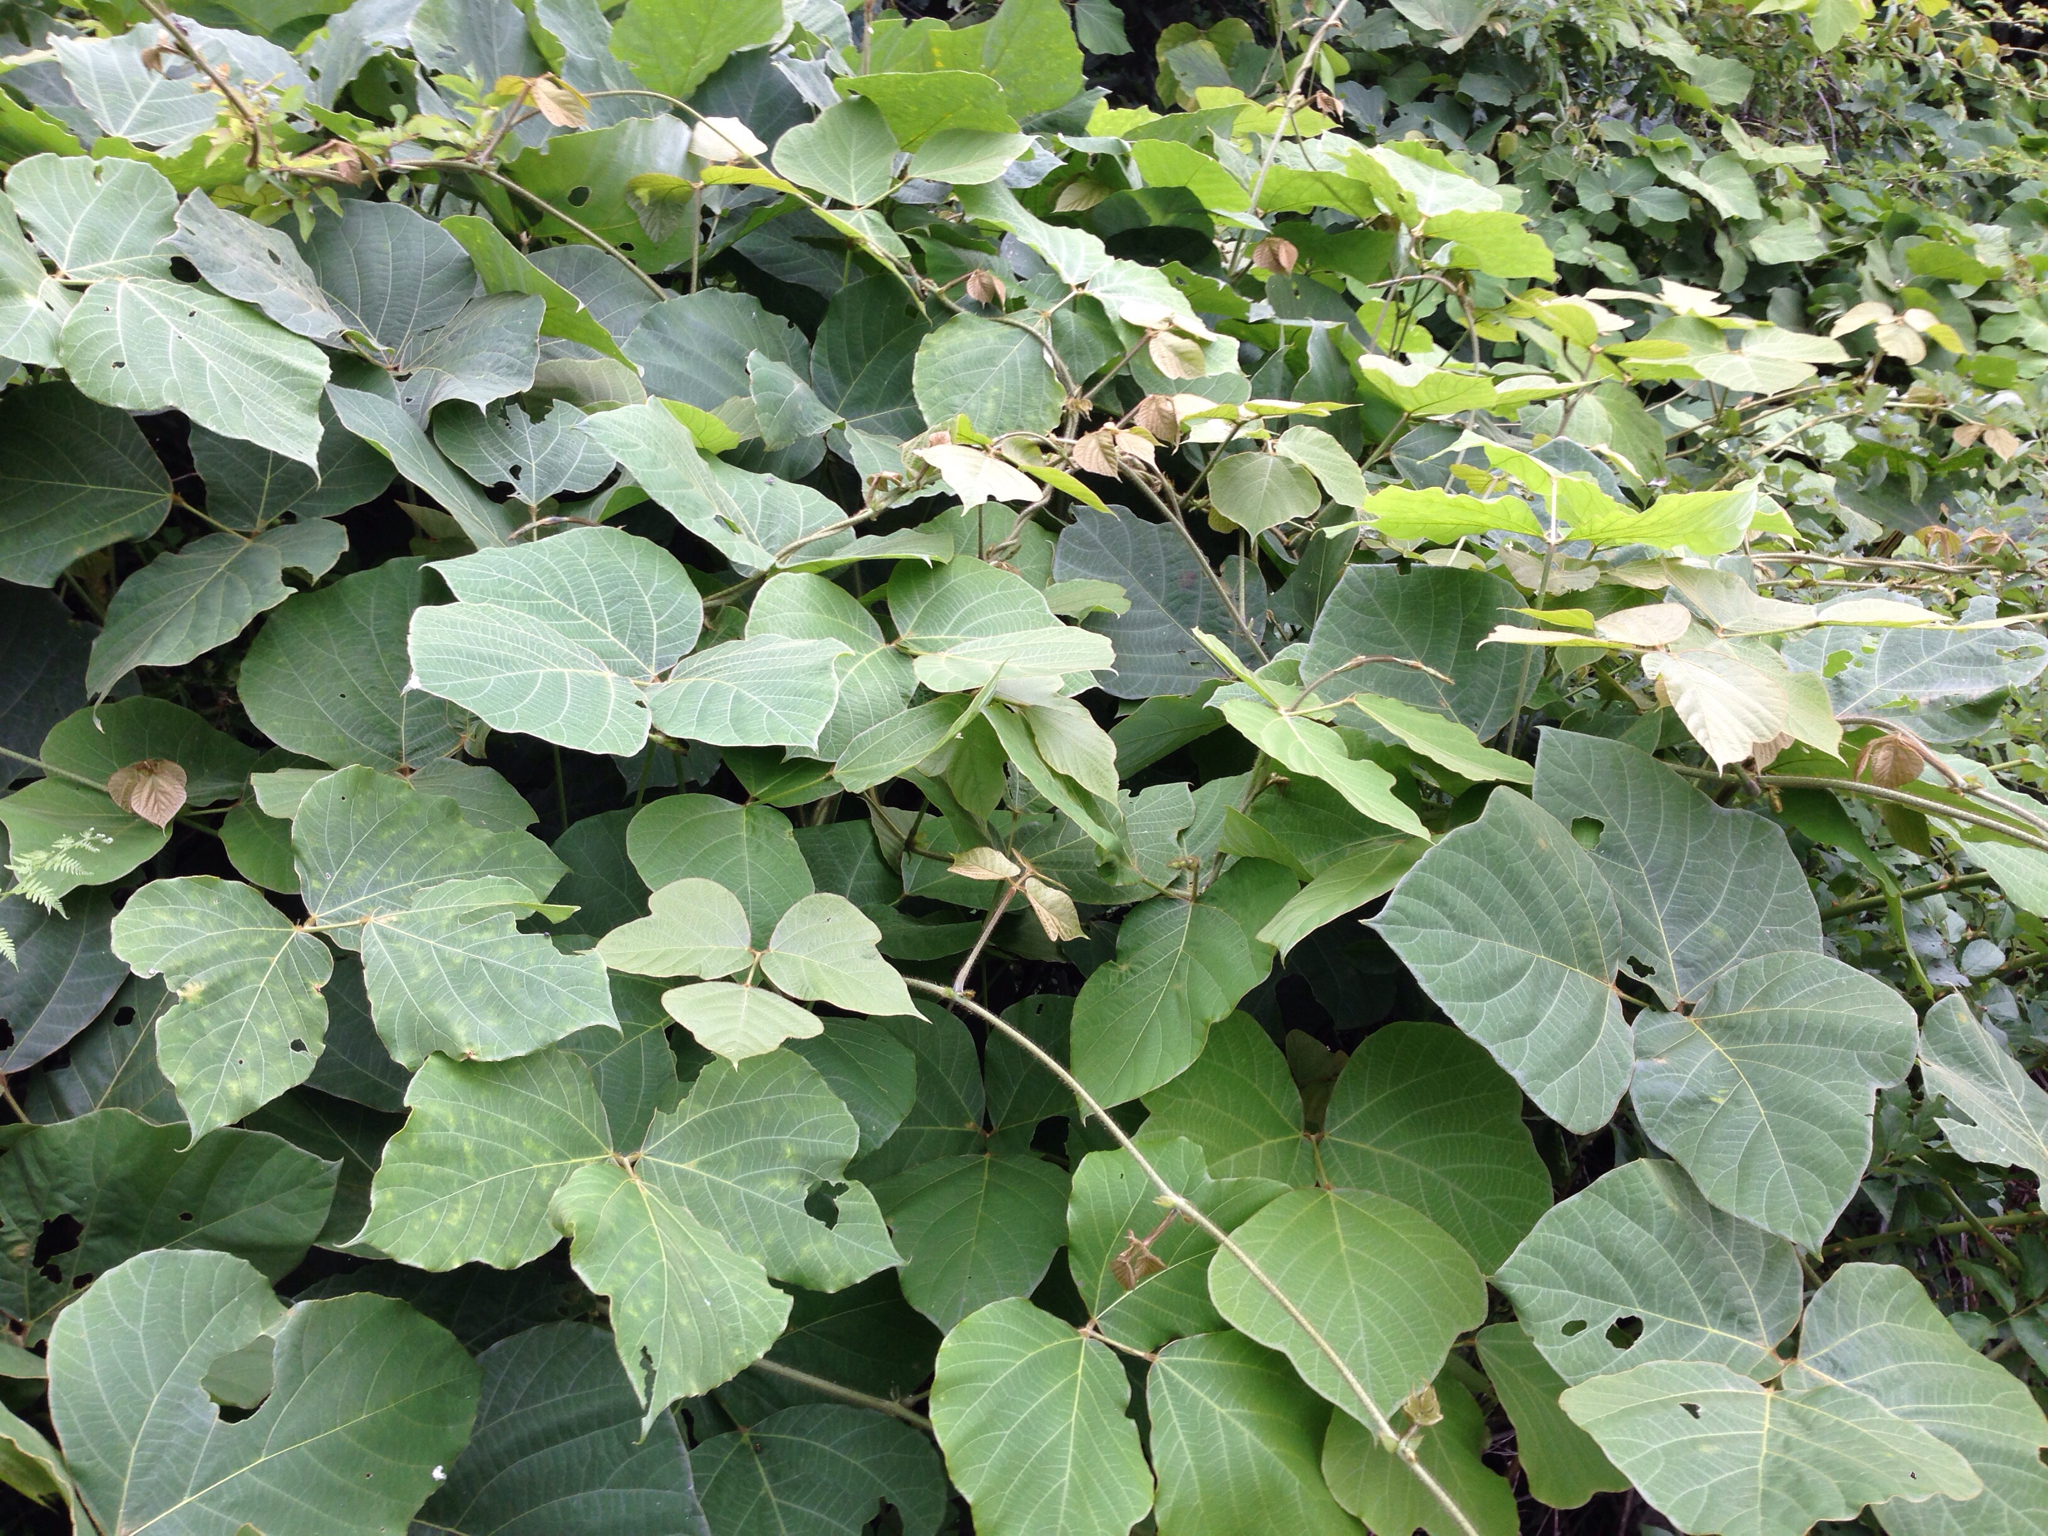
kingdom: Plantae
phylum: Tracheophyta
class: Magnoliopsida
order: Fabales
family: Fabaceae
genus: Pueraria
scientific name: Pueraria montana
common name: Kudzu
